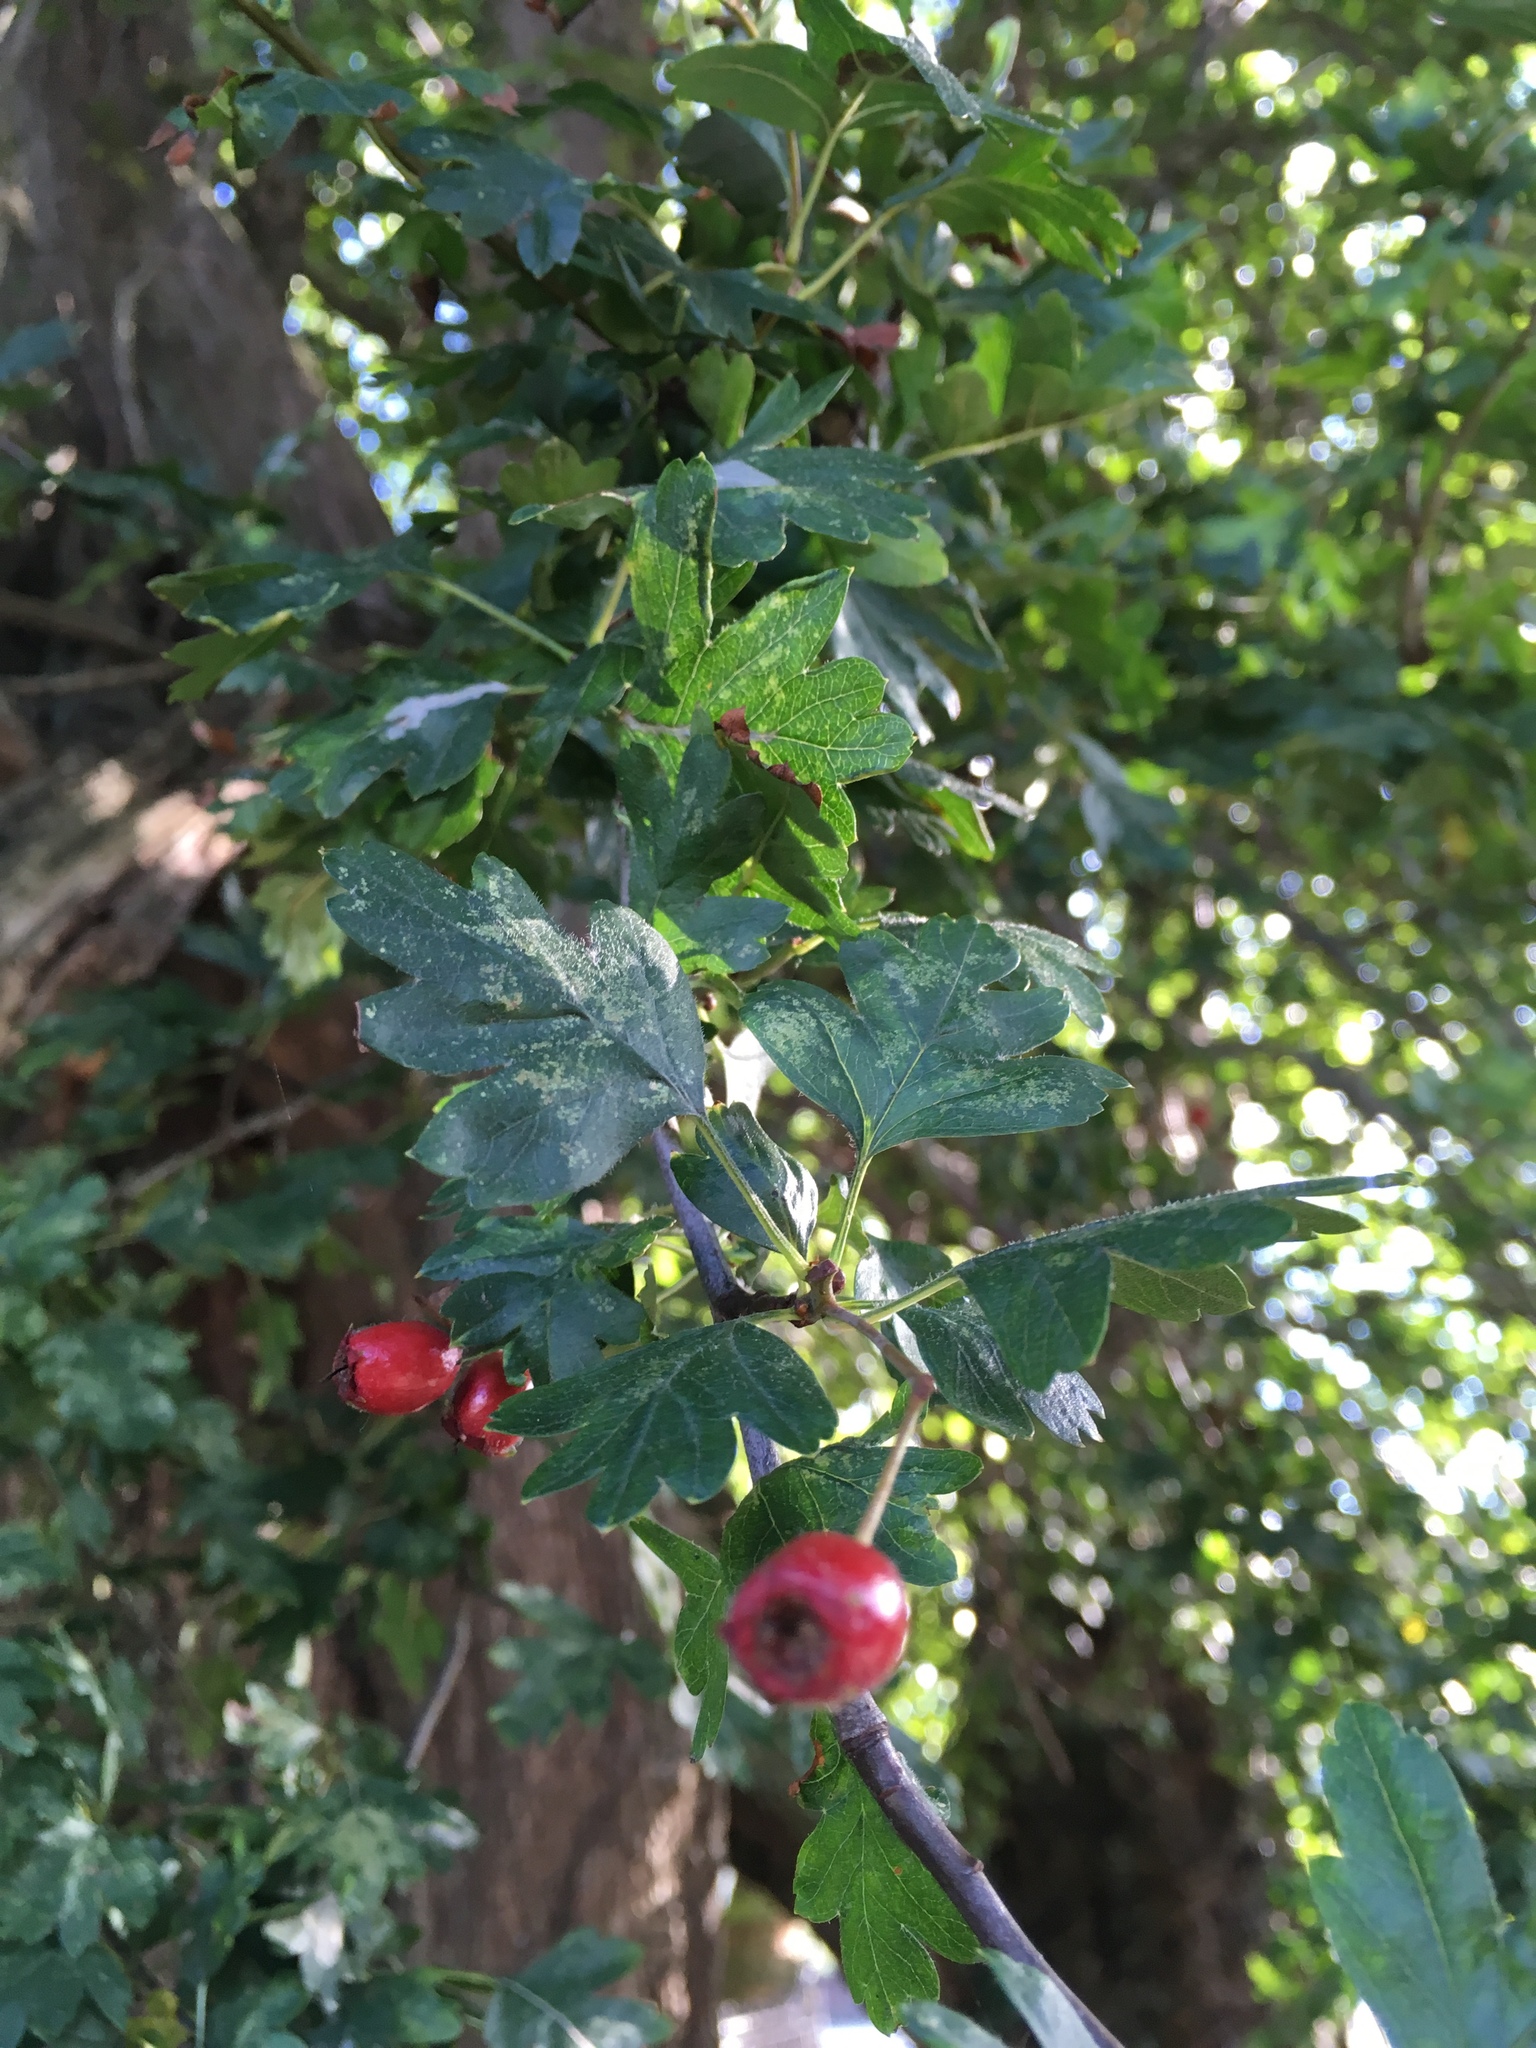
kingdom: Plantae
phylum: Tracheophyta
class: Magnoliopsida
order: Rosales
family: Rosaceae
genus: Crataegus
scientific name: Crataegus monogyna
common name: Hawthorn
